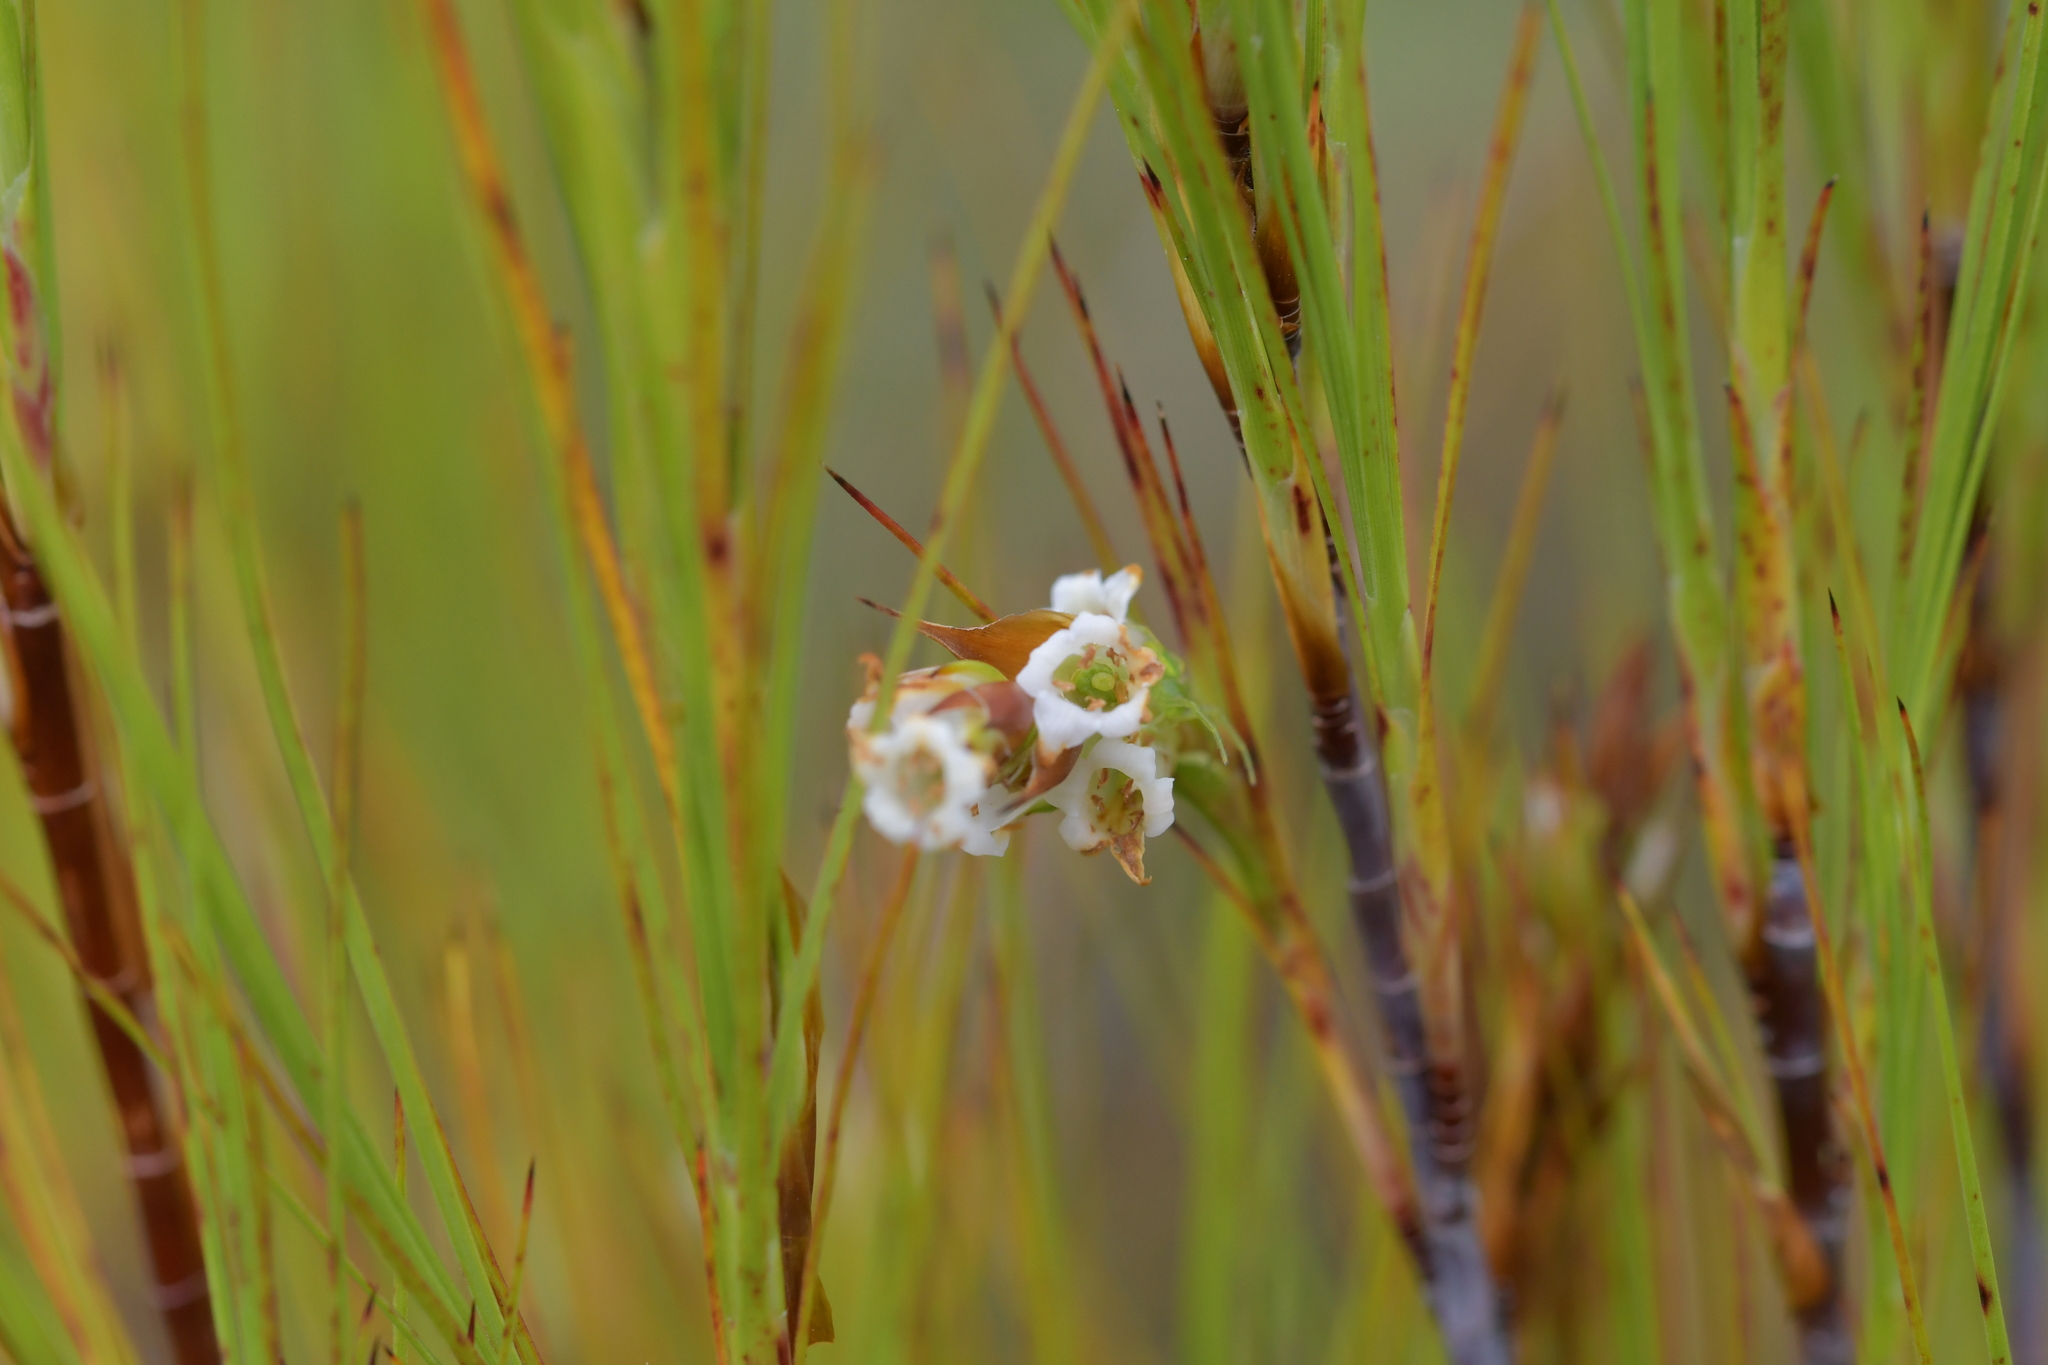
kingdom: Plantae
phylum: Tracheophyta
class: Magnoliopsida
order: Ericales
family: Ericaceae
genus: Dracophyllum
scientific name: Dracophyllum filifolium
